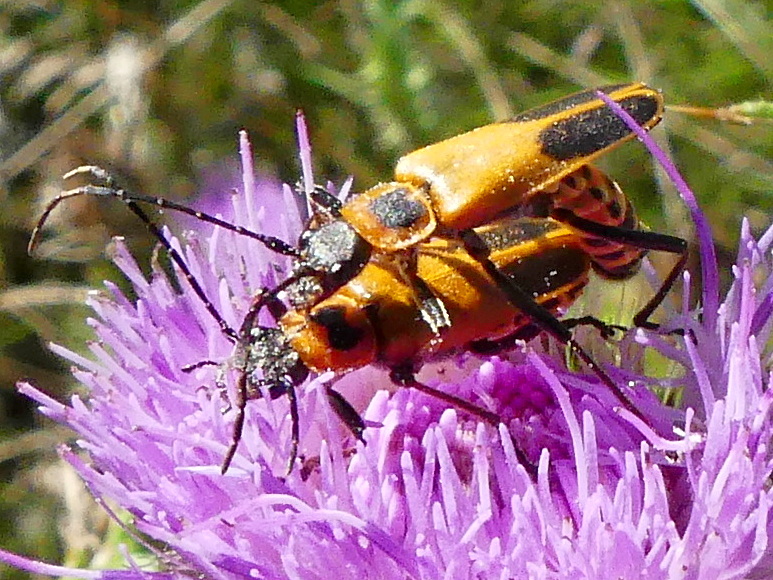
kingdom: Animalia
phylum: Arthropoda
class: Insecta
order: Coleoptera
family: Cantharidae
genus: Chauliognathus
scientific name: Chauliognathus pensylvanicus
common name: Goldenrod soldier beetle
